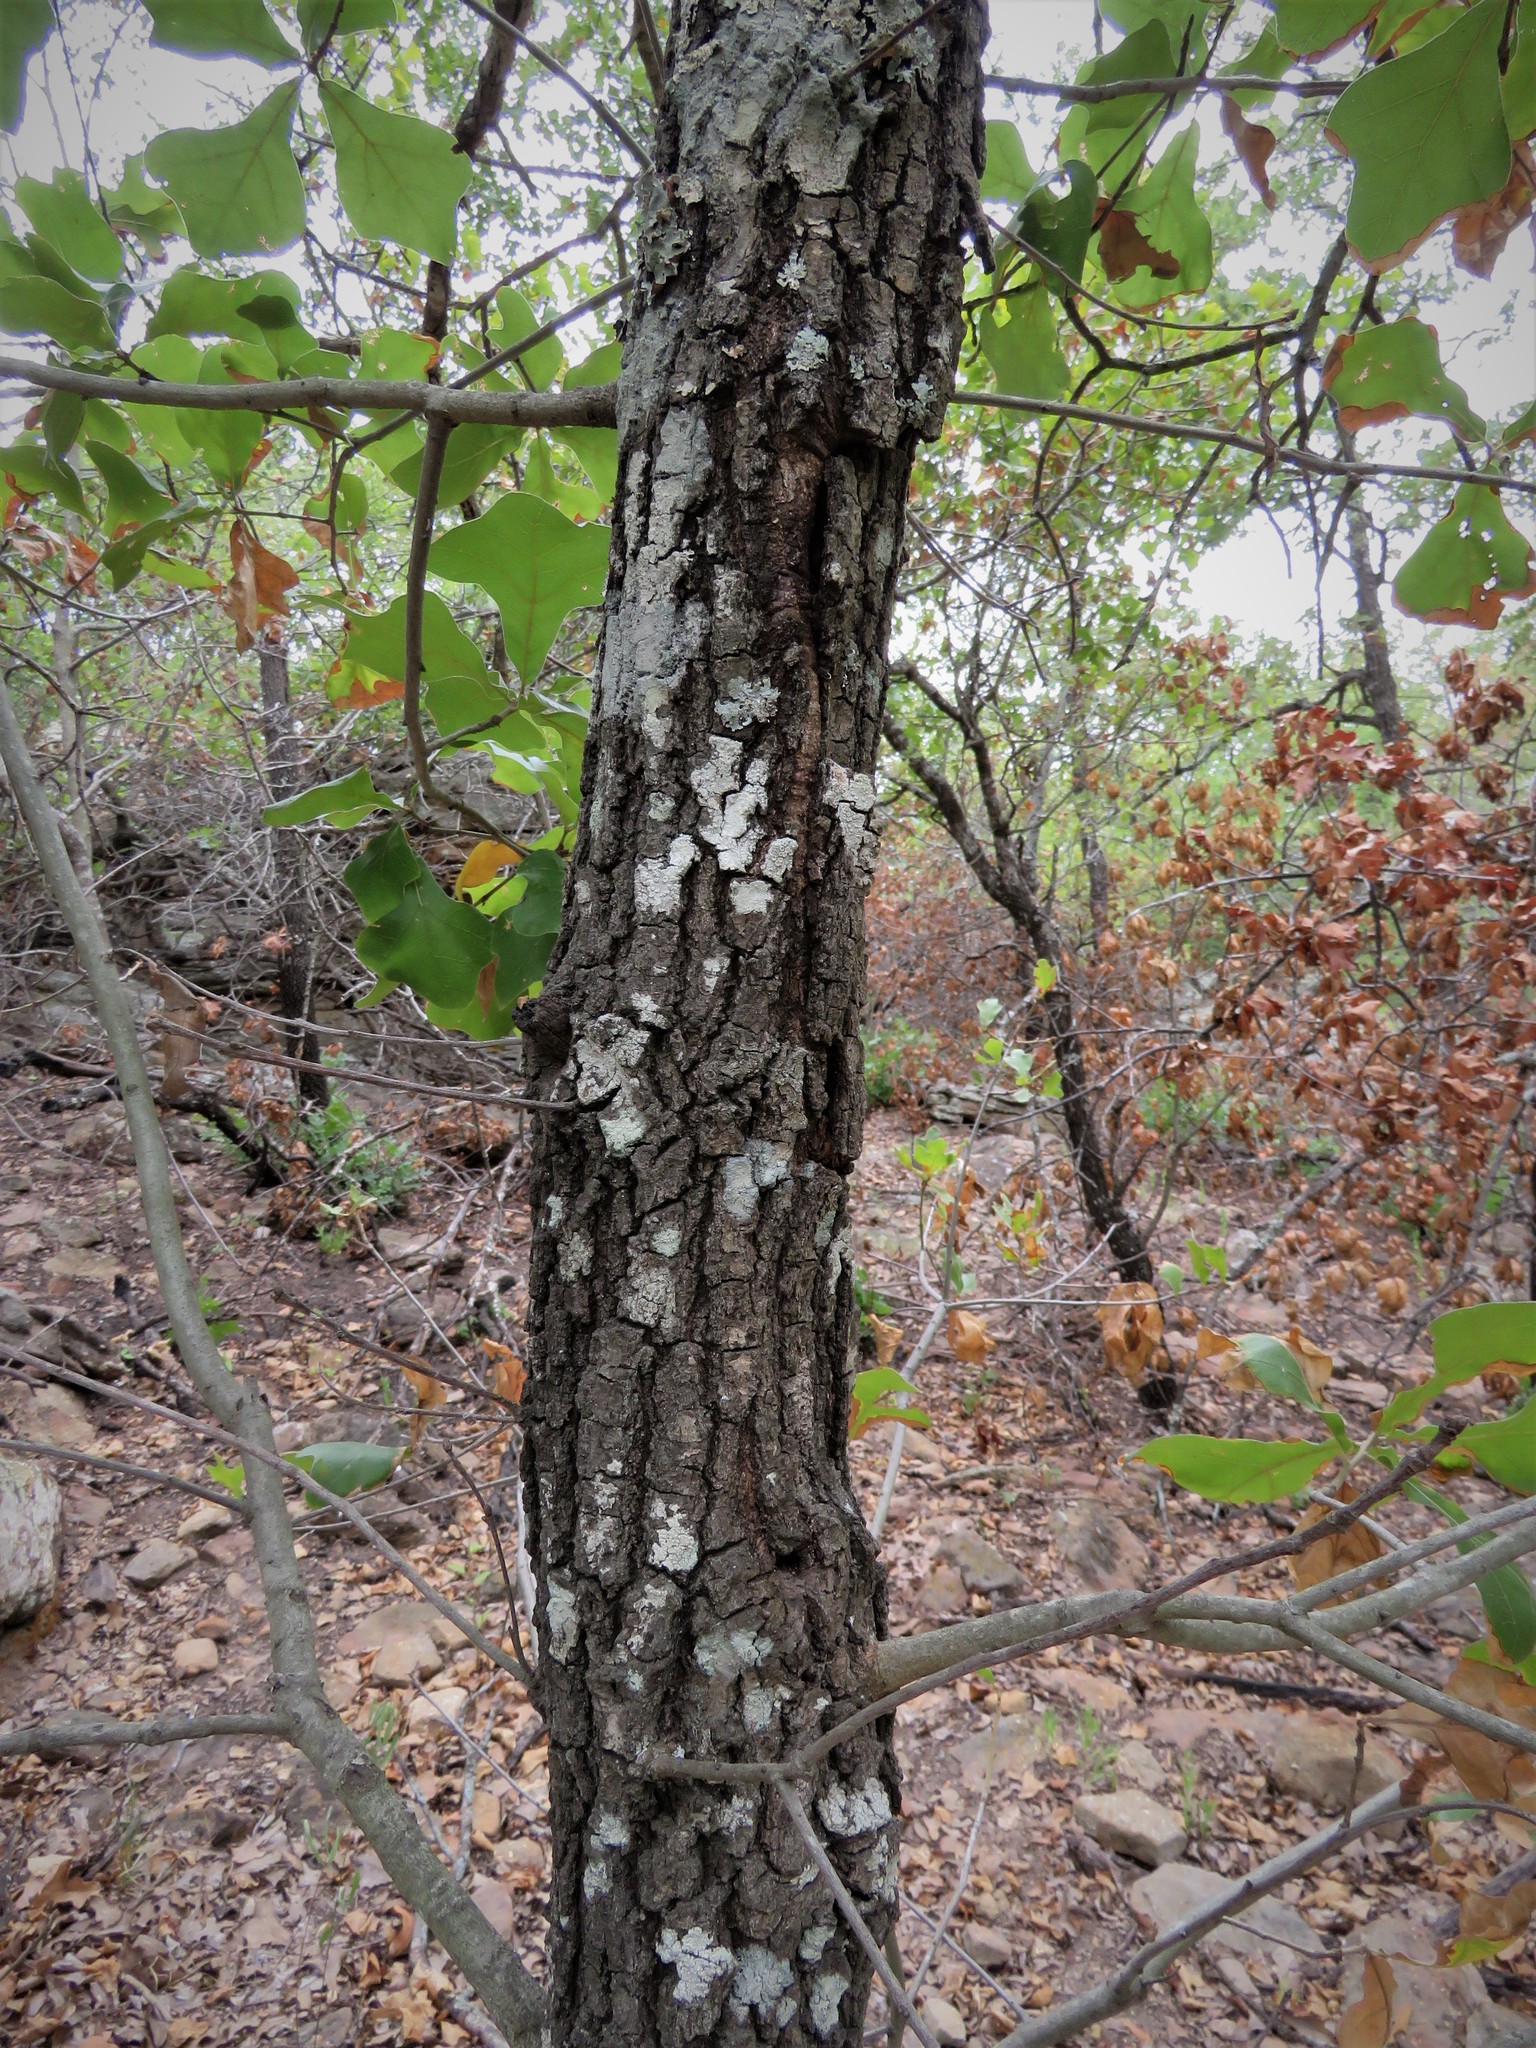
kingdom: Plantae
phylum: Tracheophyta
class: Magnoliopsida
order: Fagales
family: Fagaceae
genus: Quercus
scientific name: Quercus marilandica
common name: Blackjack oak
